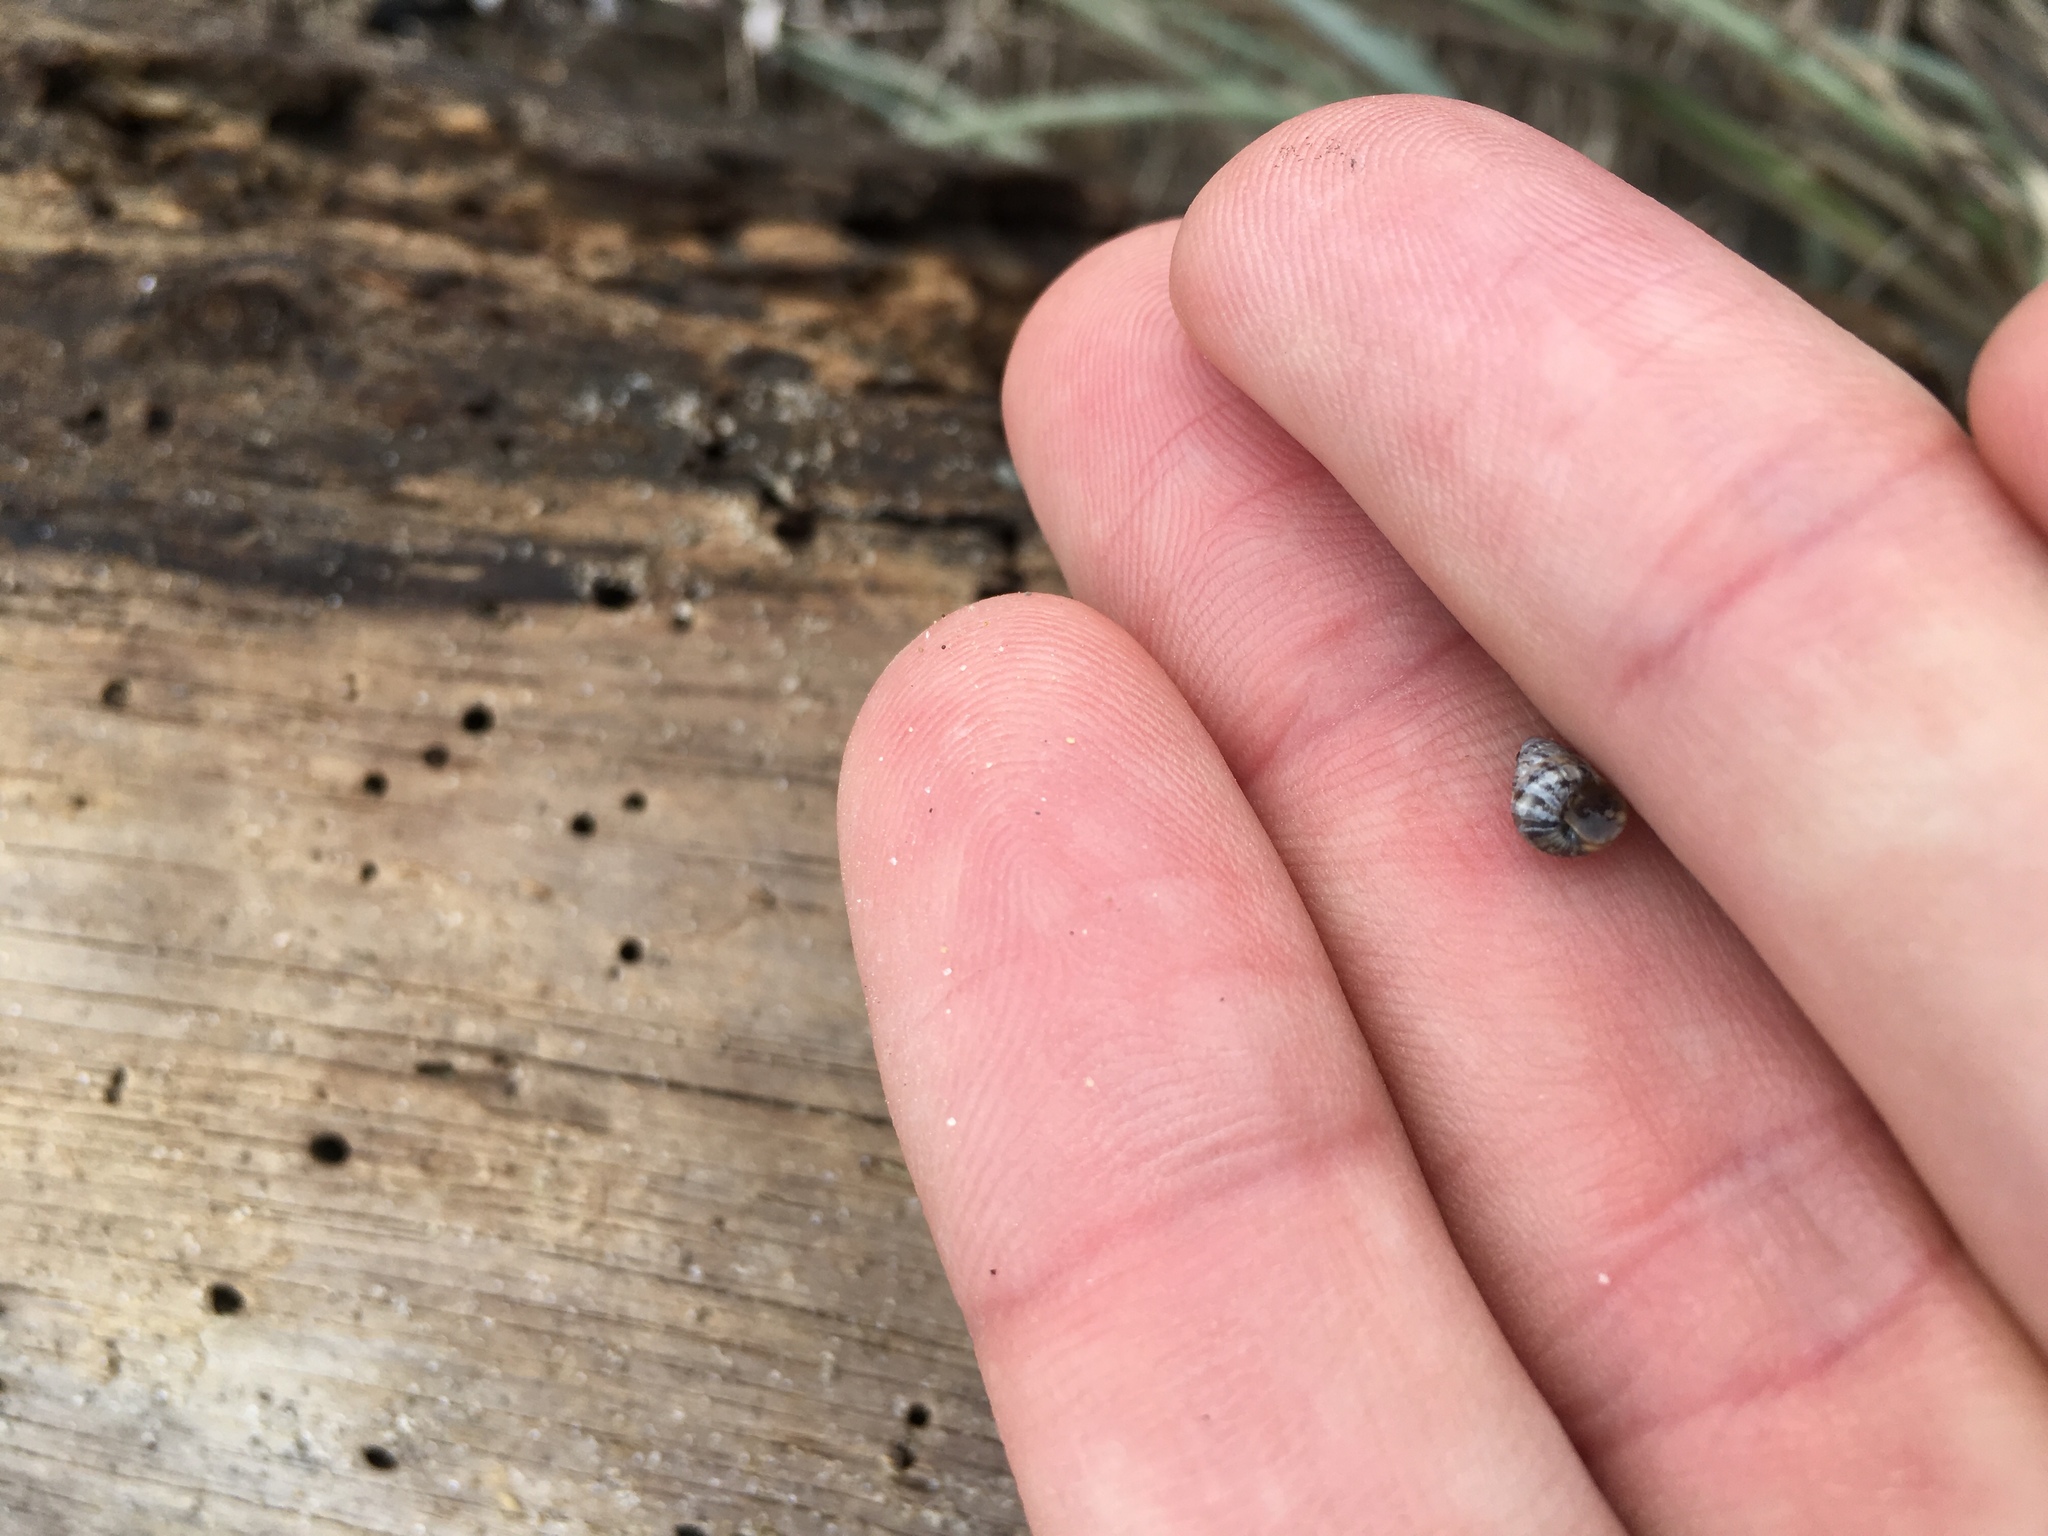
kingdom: Animalia
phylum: Mollusca
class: Gastropoda
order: Stylommatophora
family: Geomitridae
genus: Cochlicella
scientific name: Cochlicella barbara
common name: Potbellied helicellid
